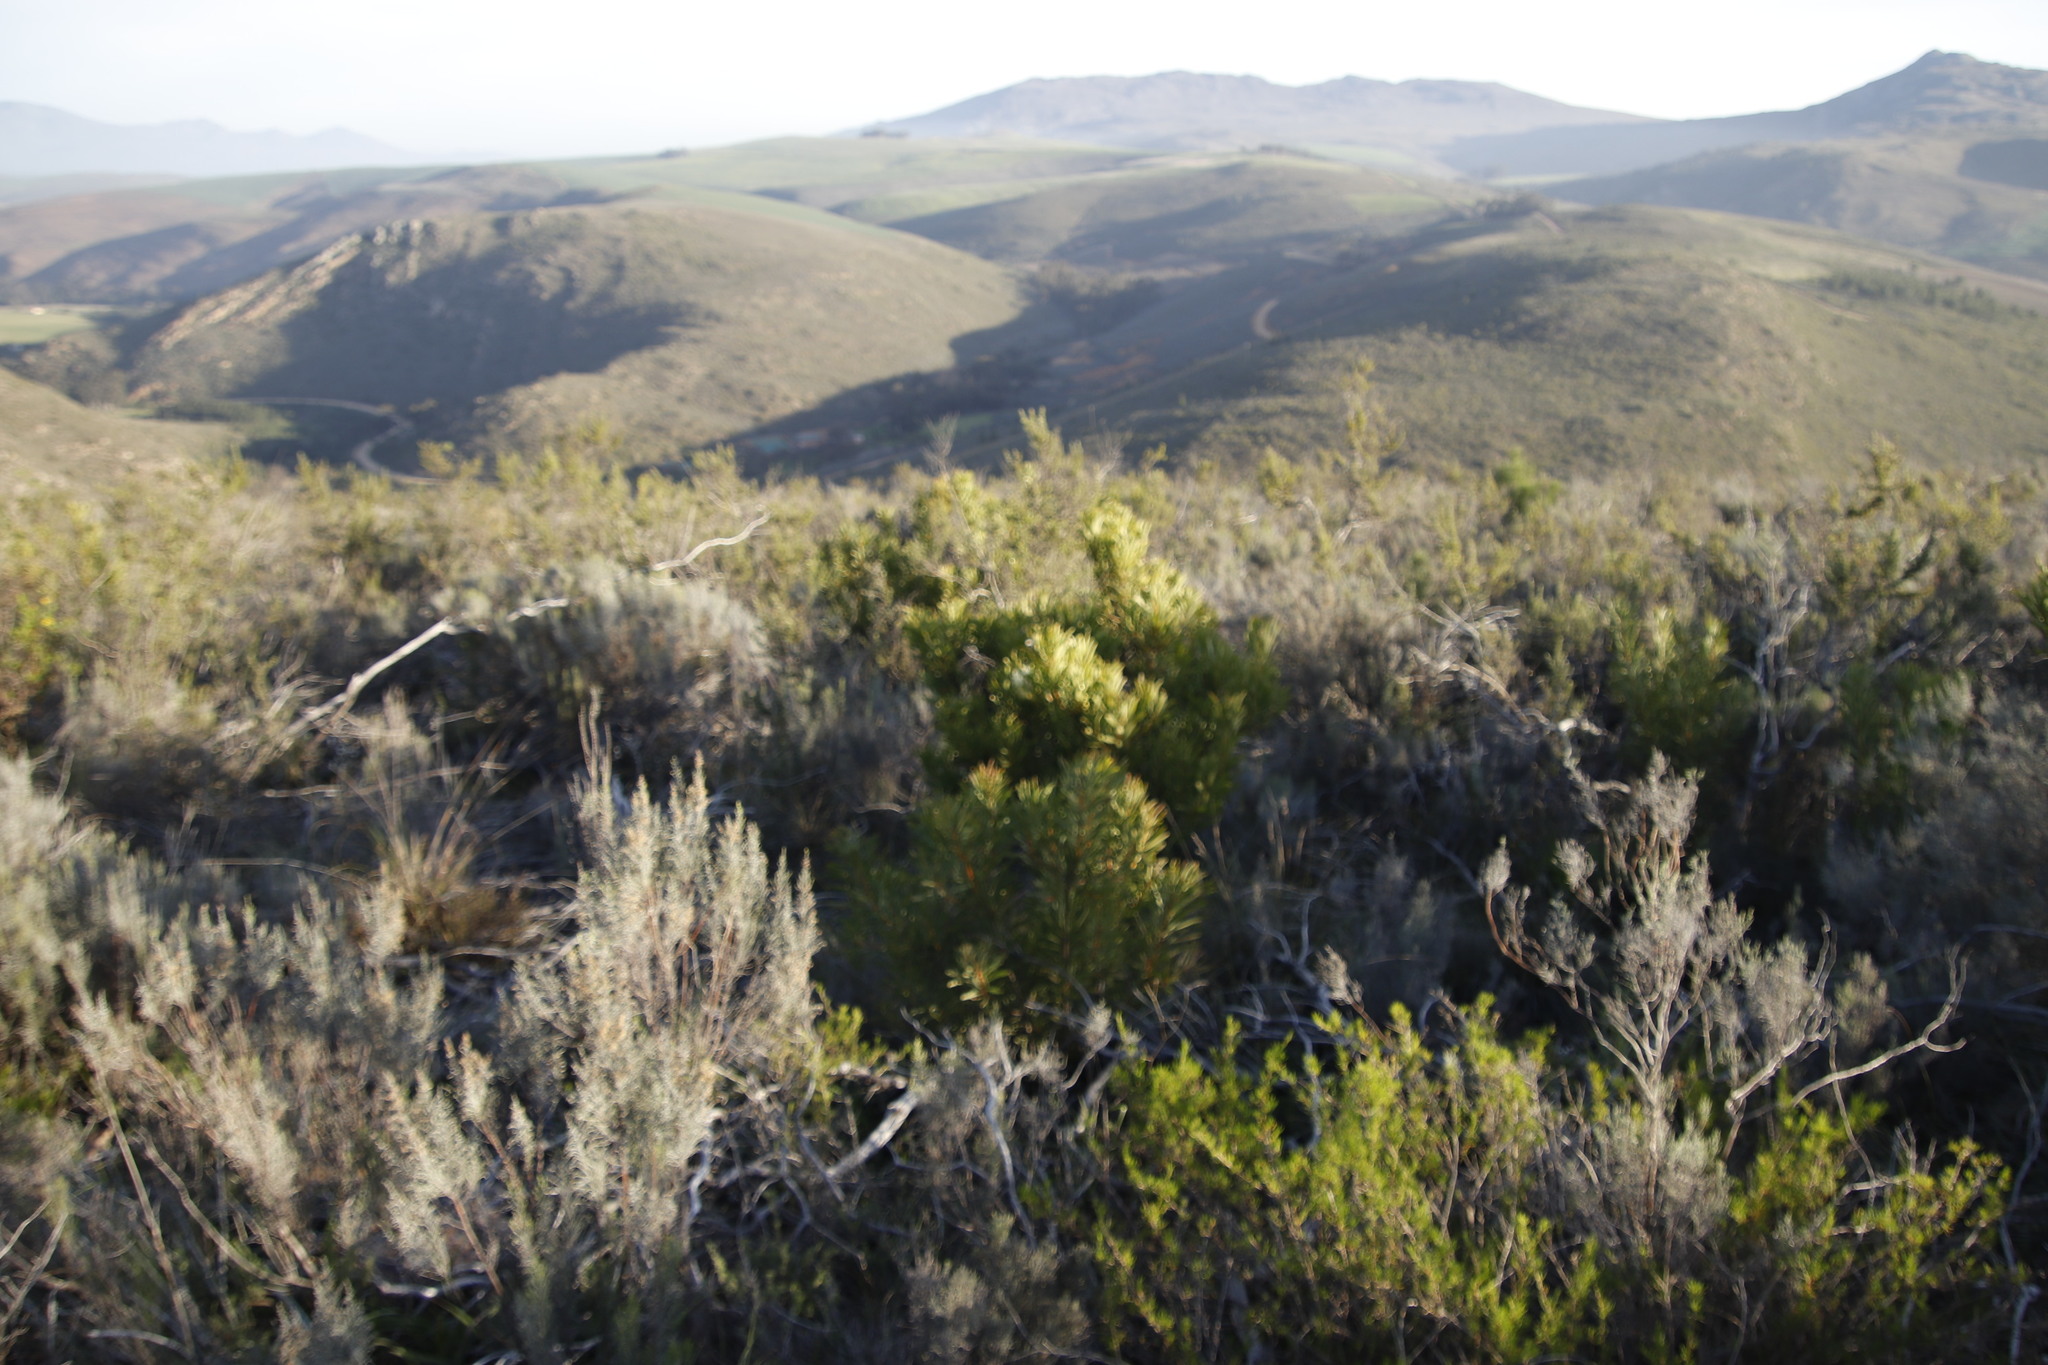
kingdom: Plantae
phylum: Tracheophyta
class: Magnoliopsida
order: Proteales
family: Proteaceae
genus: Protea
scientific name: Protea repens
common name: Sugarbush
